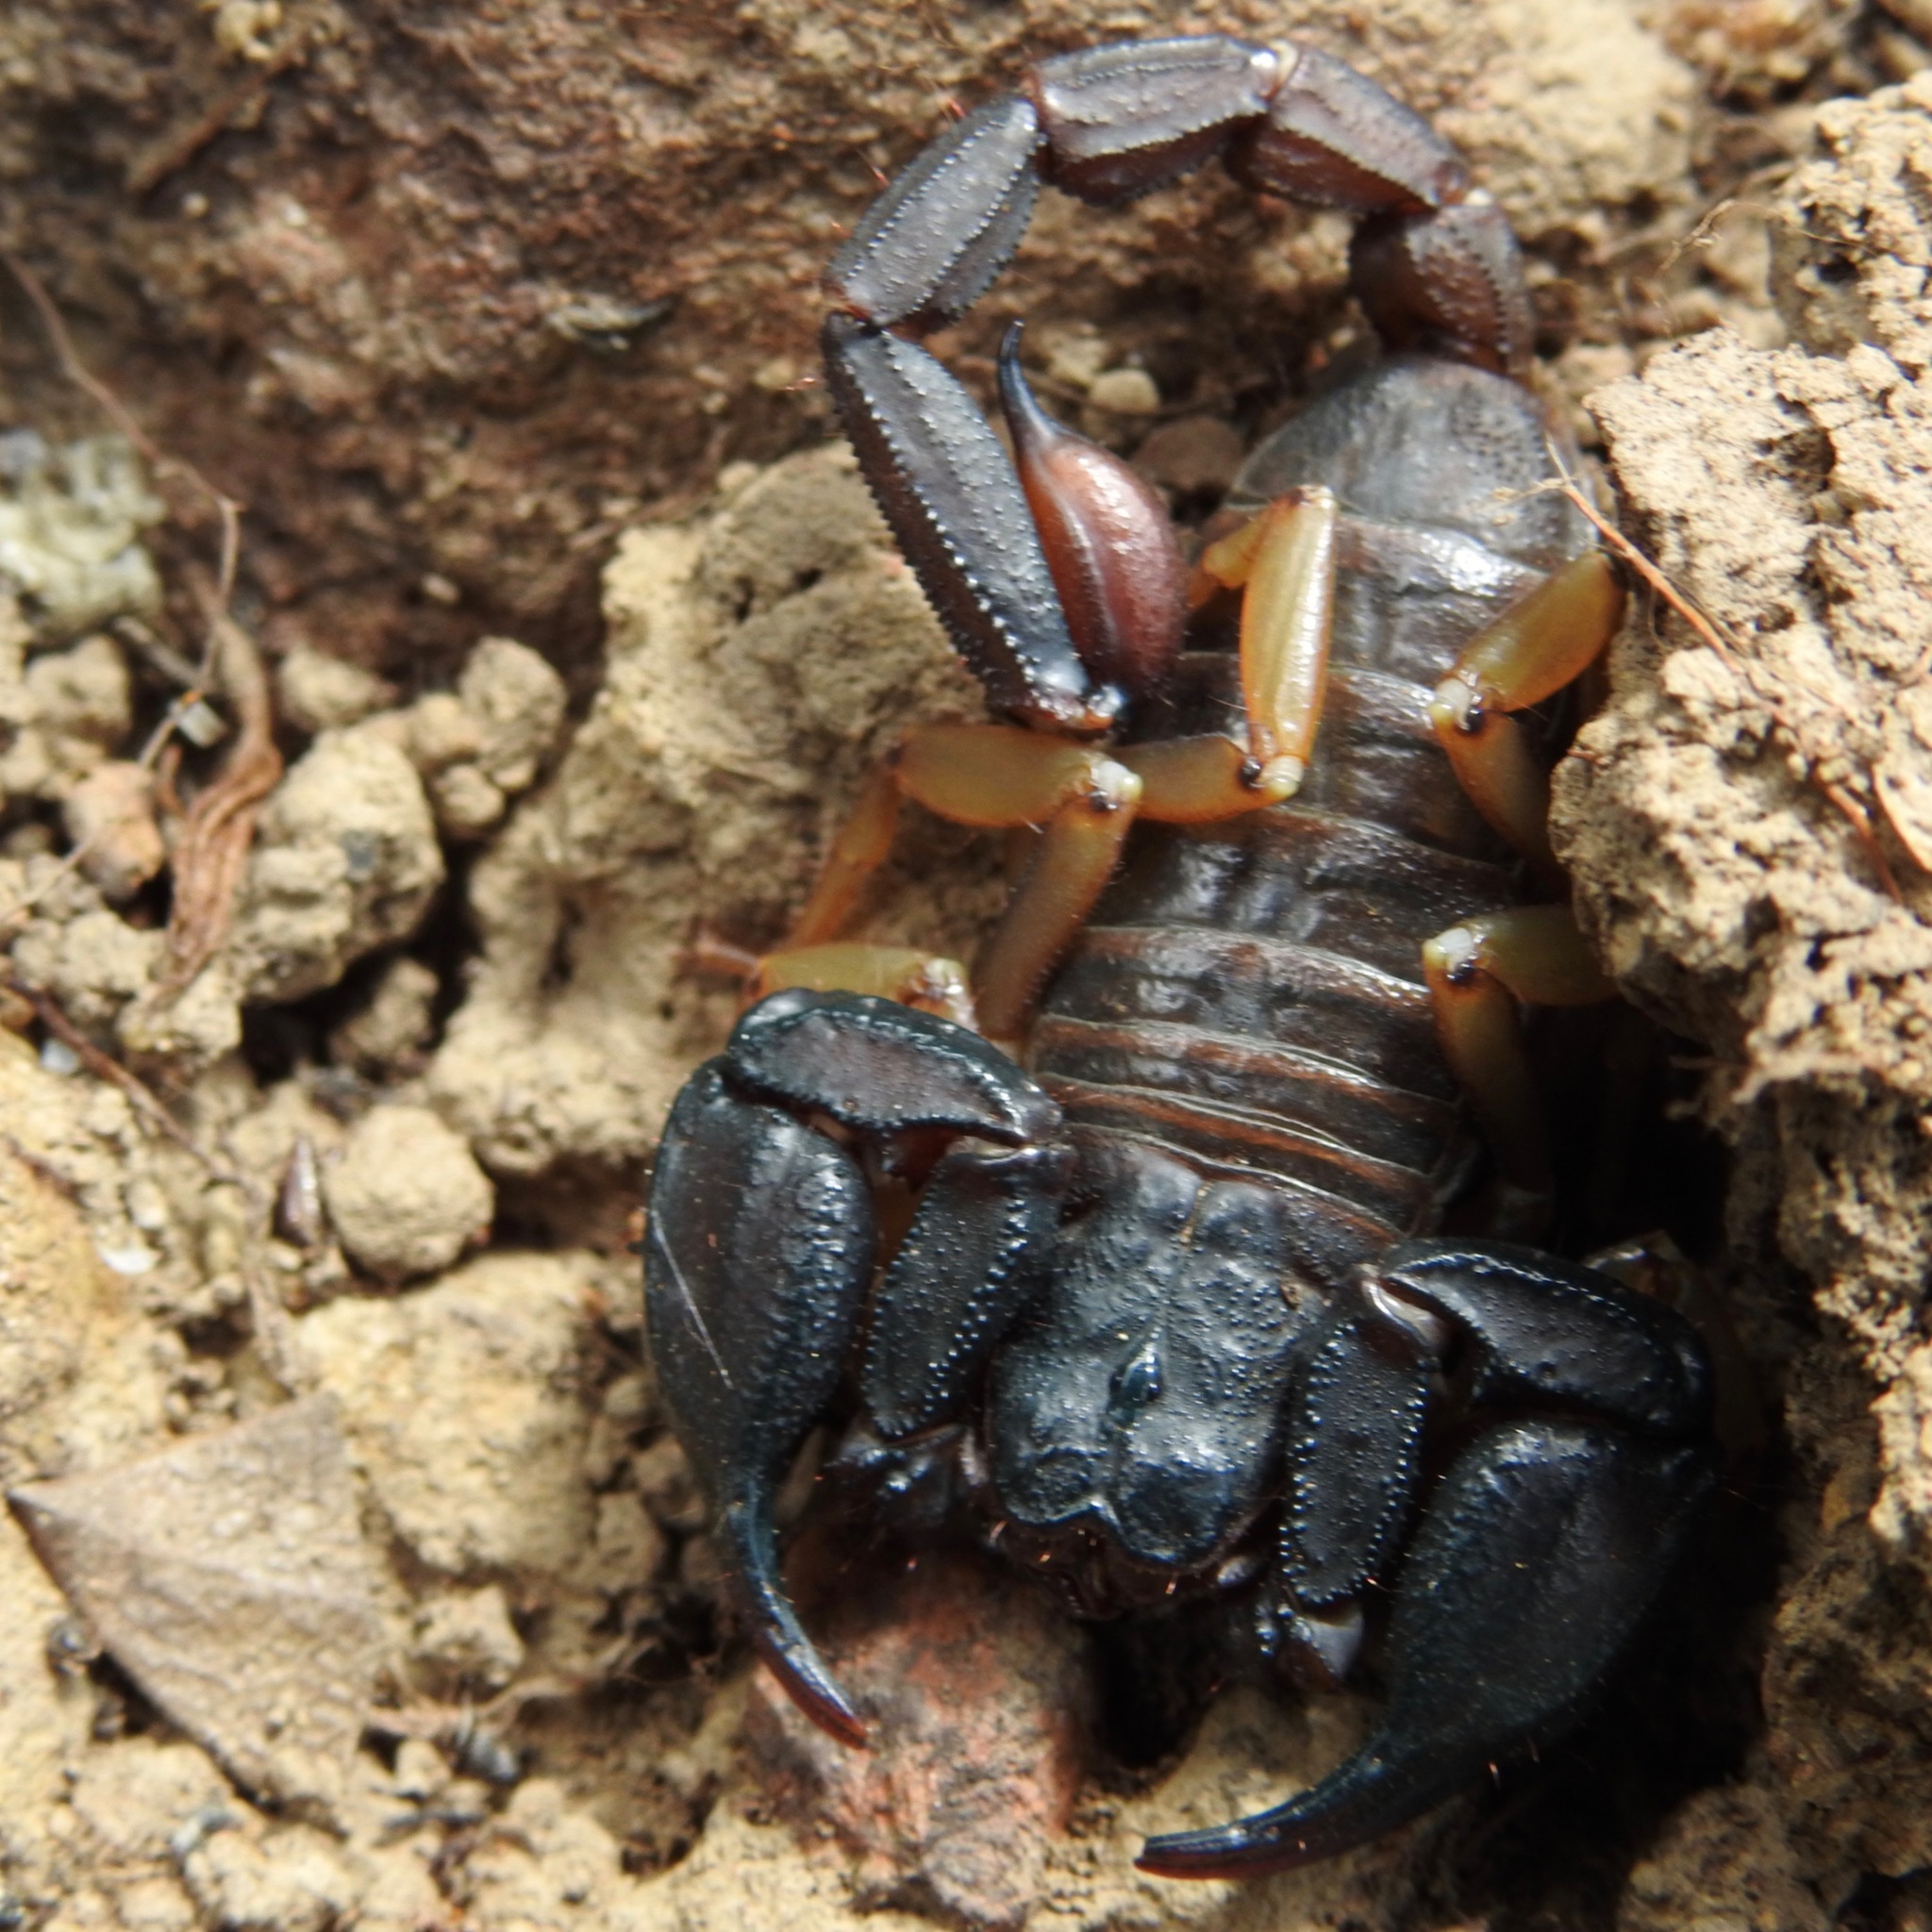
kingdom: Animalia
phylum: Arthropoda
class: Arachnida
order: Scorpiones
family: Chactidae
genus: Uroctonus
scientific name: Uroctonus mordax
